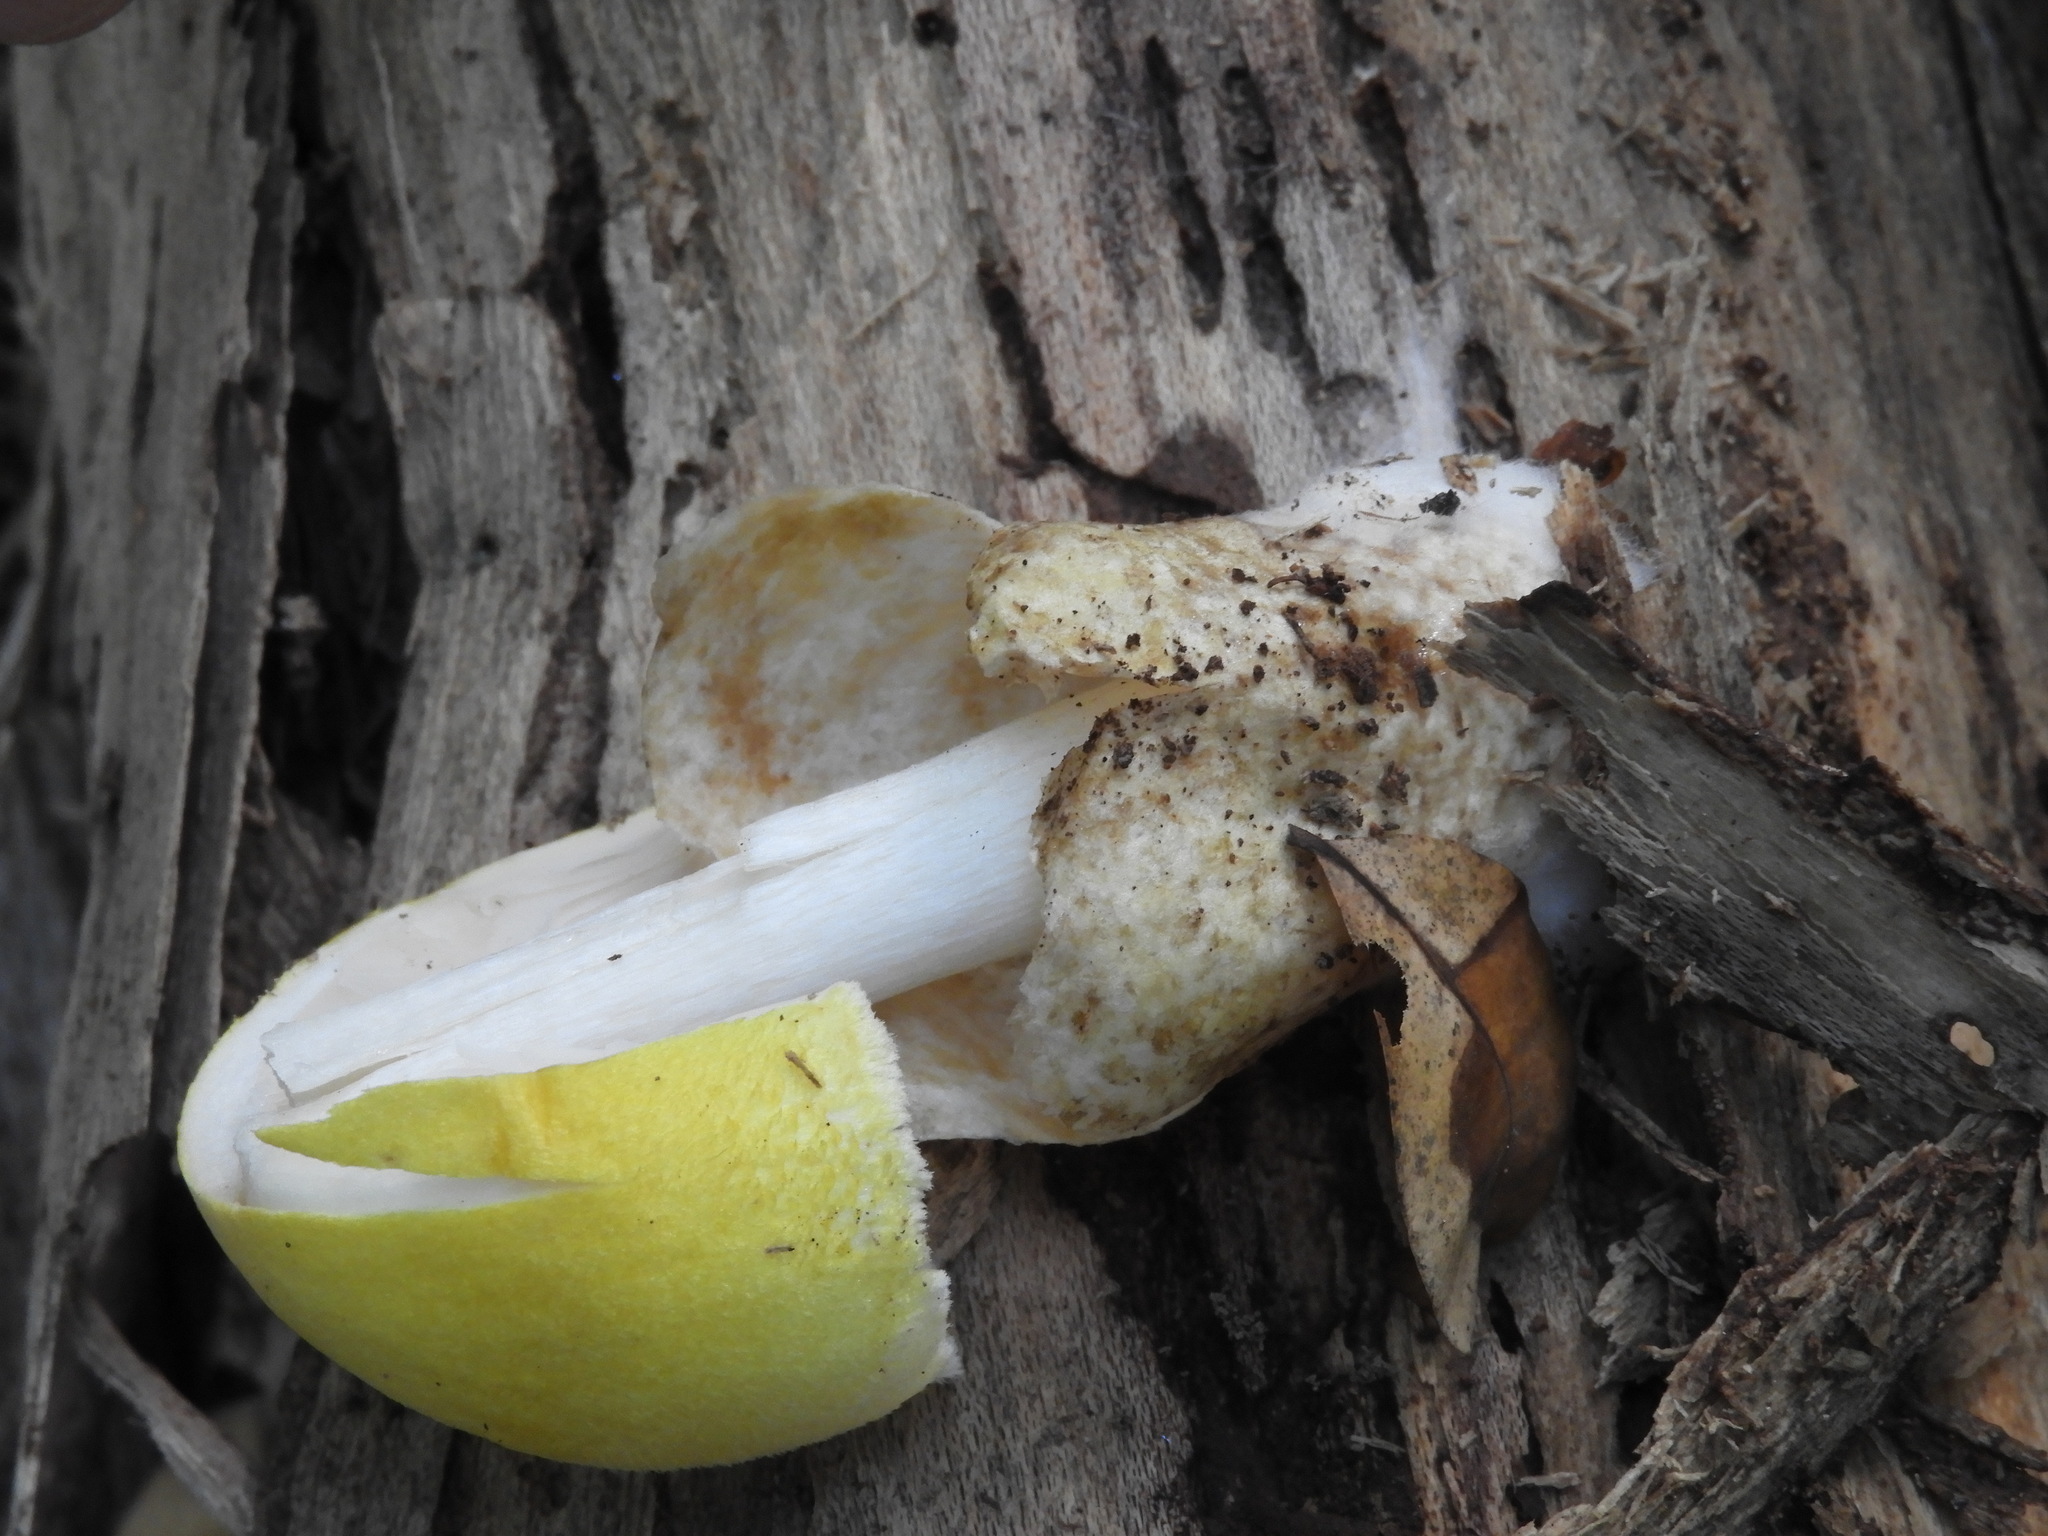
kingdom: Fungi
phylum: Basidiomycota
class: Agaricomycetes
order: Agaricales
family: Pluteaceae
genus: Volvariella
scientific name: Volvariella bombycina
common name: Silky rosegill
